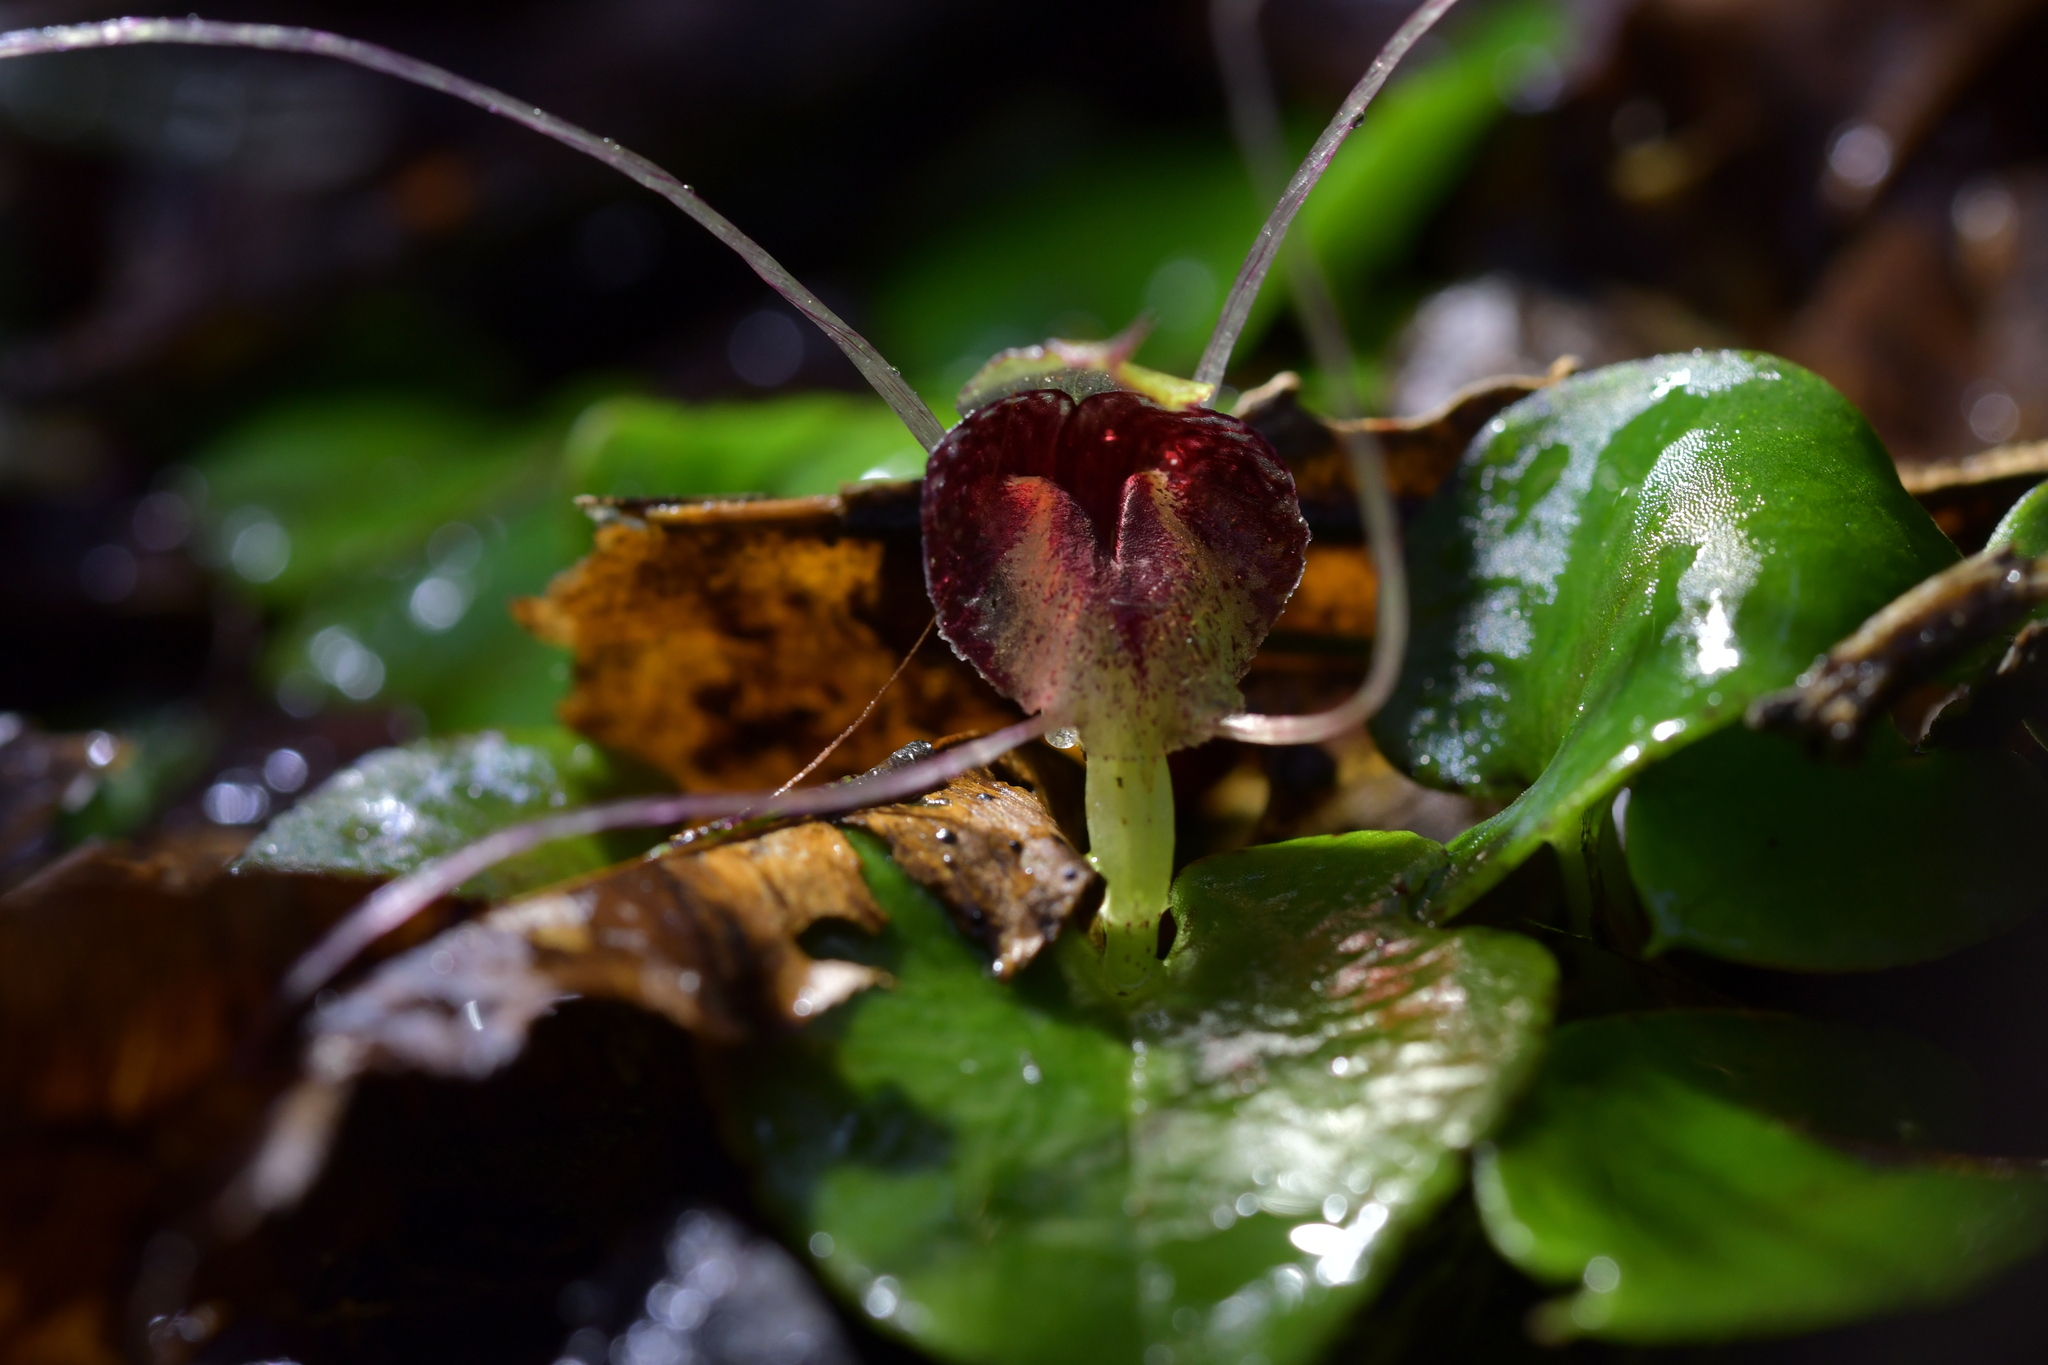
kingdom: Plantae
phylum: Tracheophyta
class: Liliopsida
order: Asparagales
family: Orchidaceae
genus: Corybas
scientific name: Corybas hatchii
